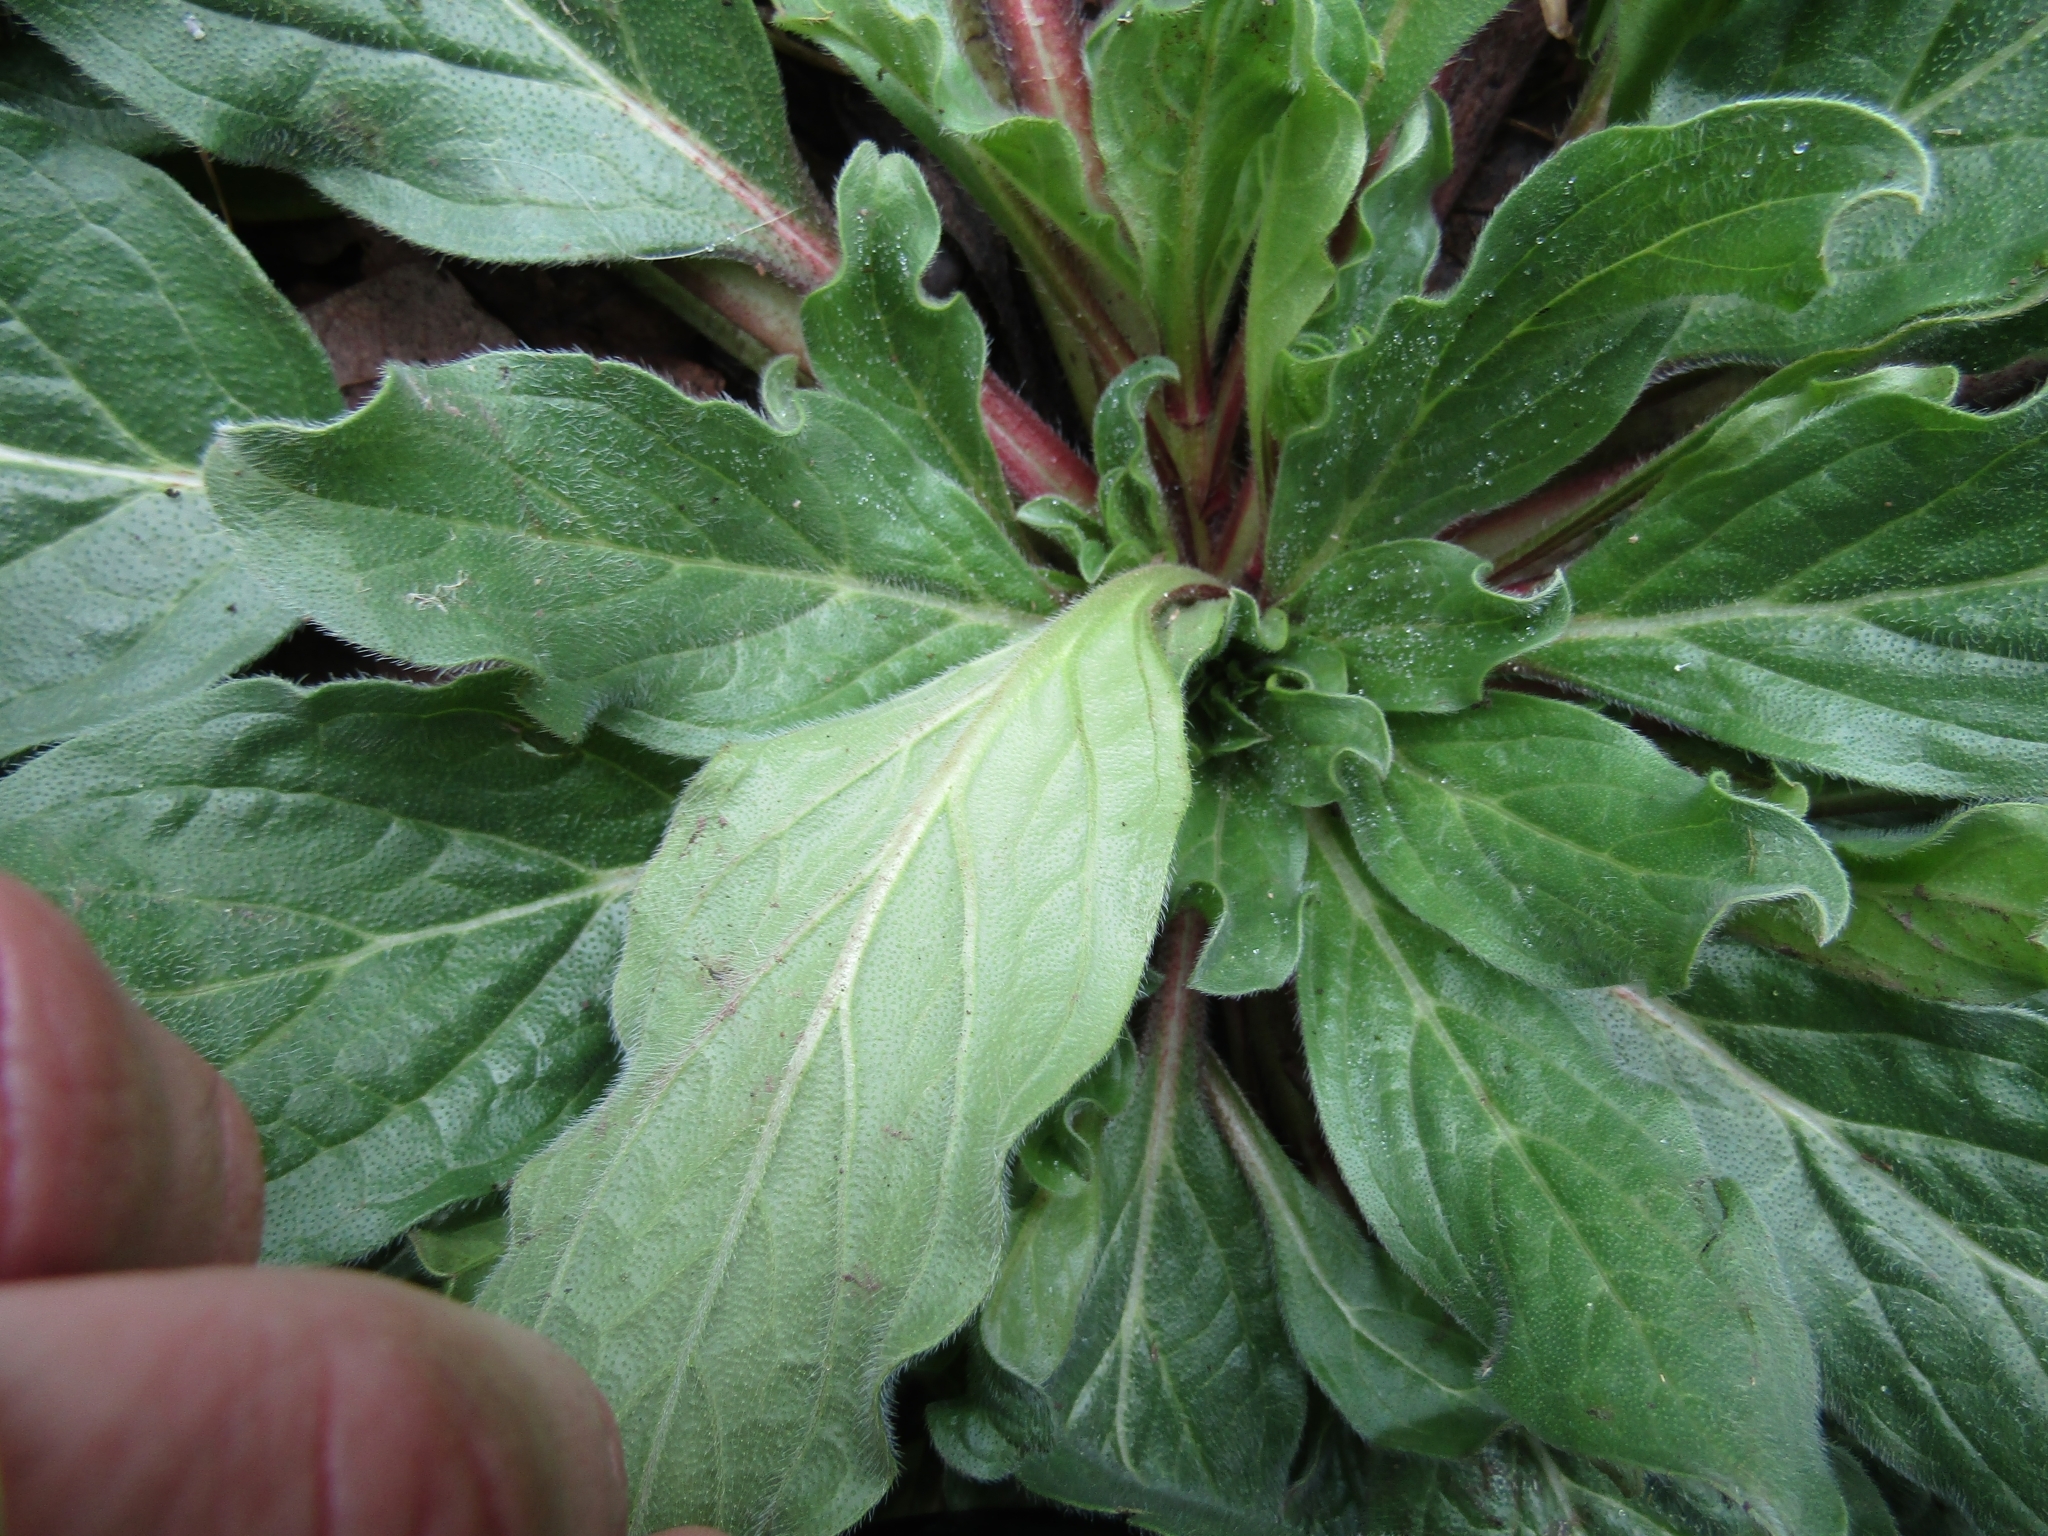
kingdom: Plantae
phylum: Tracheophyta
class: Magnoliopsida
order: Boraginales
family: Boraginaceae
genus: Echium
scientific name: Echium plantagineum
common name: Purple viper's-bugloss
